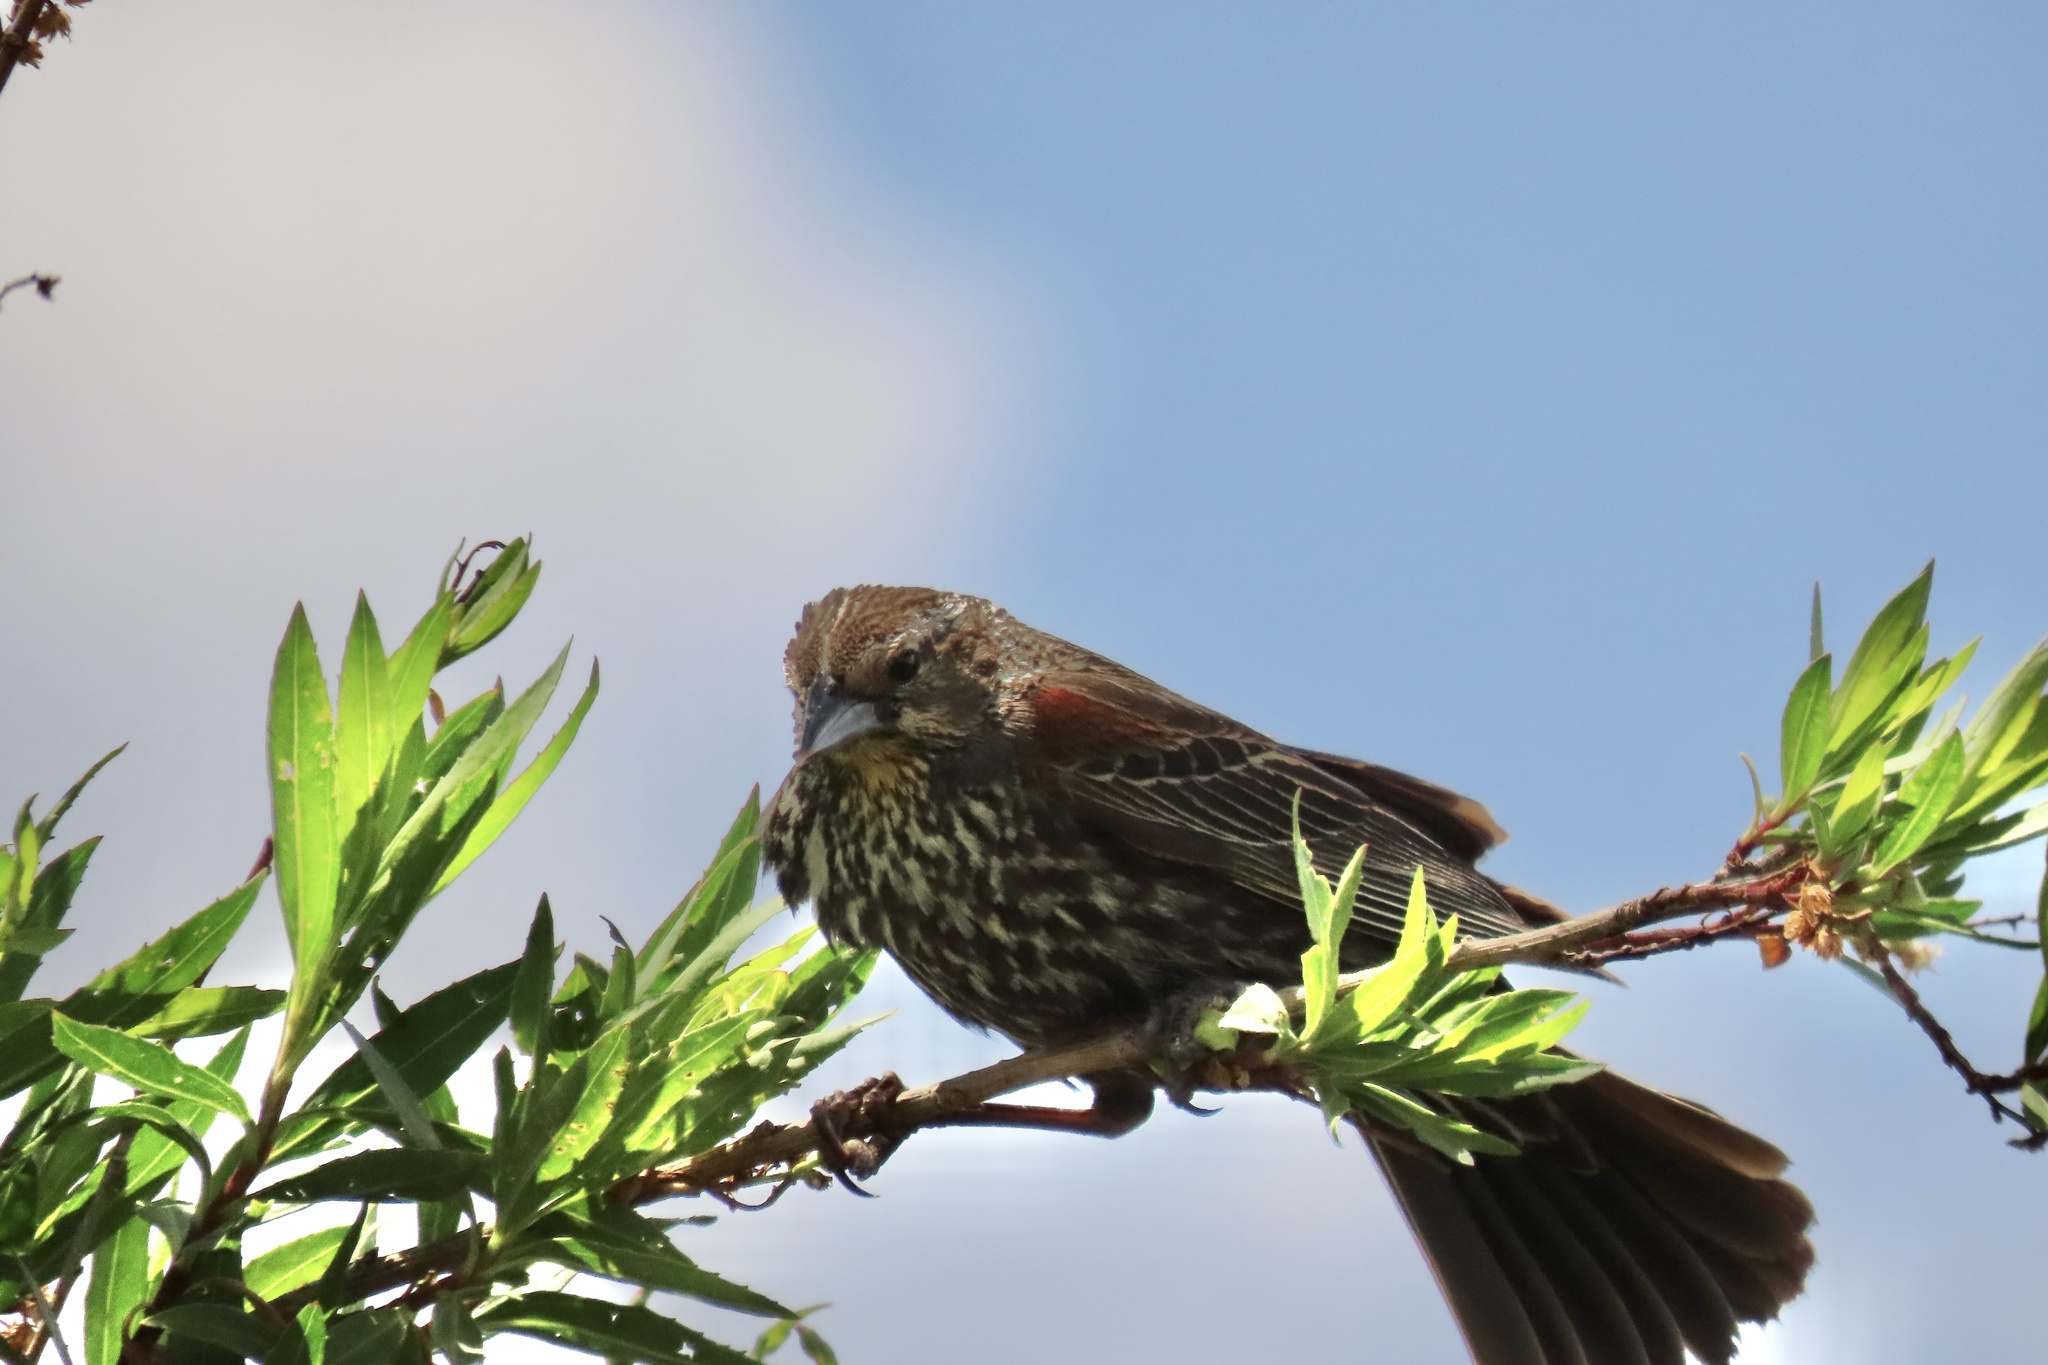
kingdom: Animalia
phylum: Chordata
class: Aves
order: Passeriformes
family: Icteridae
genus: Agelaius
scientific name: Agelaius phoeniceus
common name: Red-winged blackbird
